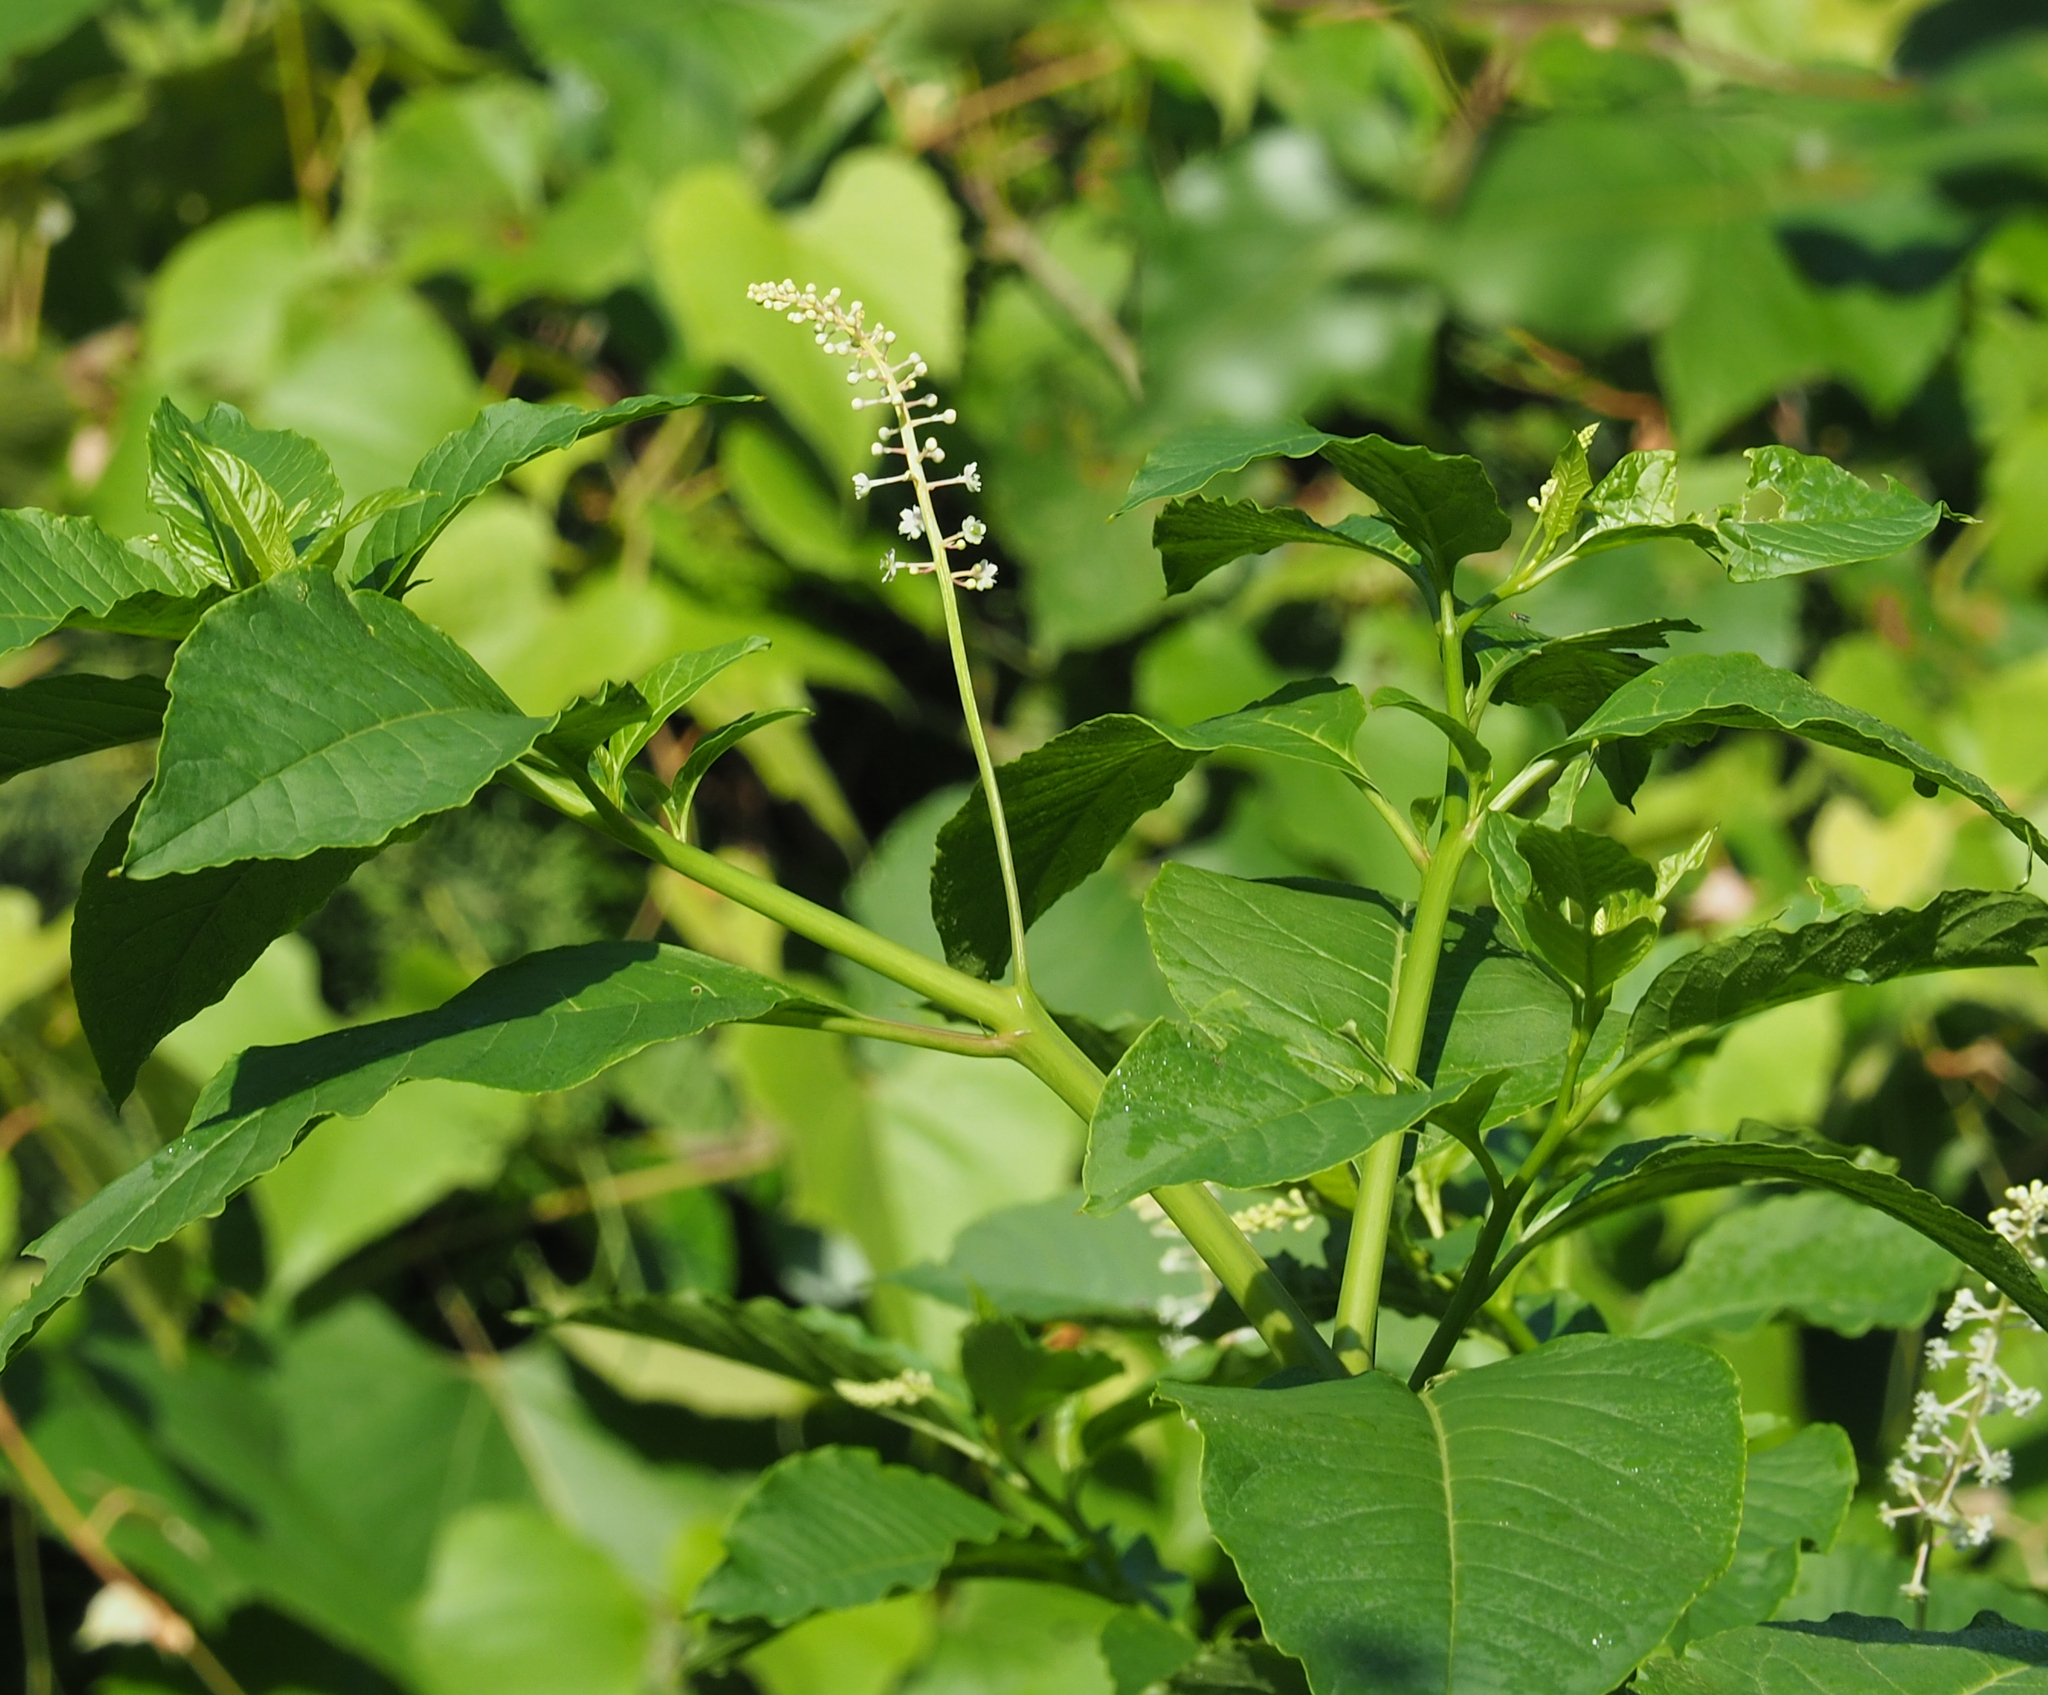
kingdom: Plantae
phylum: Tracheophyta
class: Magnoliopsida
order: Caryophyllales
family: Phytolaccaceae
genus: Phytolacca
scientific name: Phytolacca americana
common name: American pokeweed
